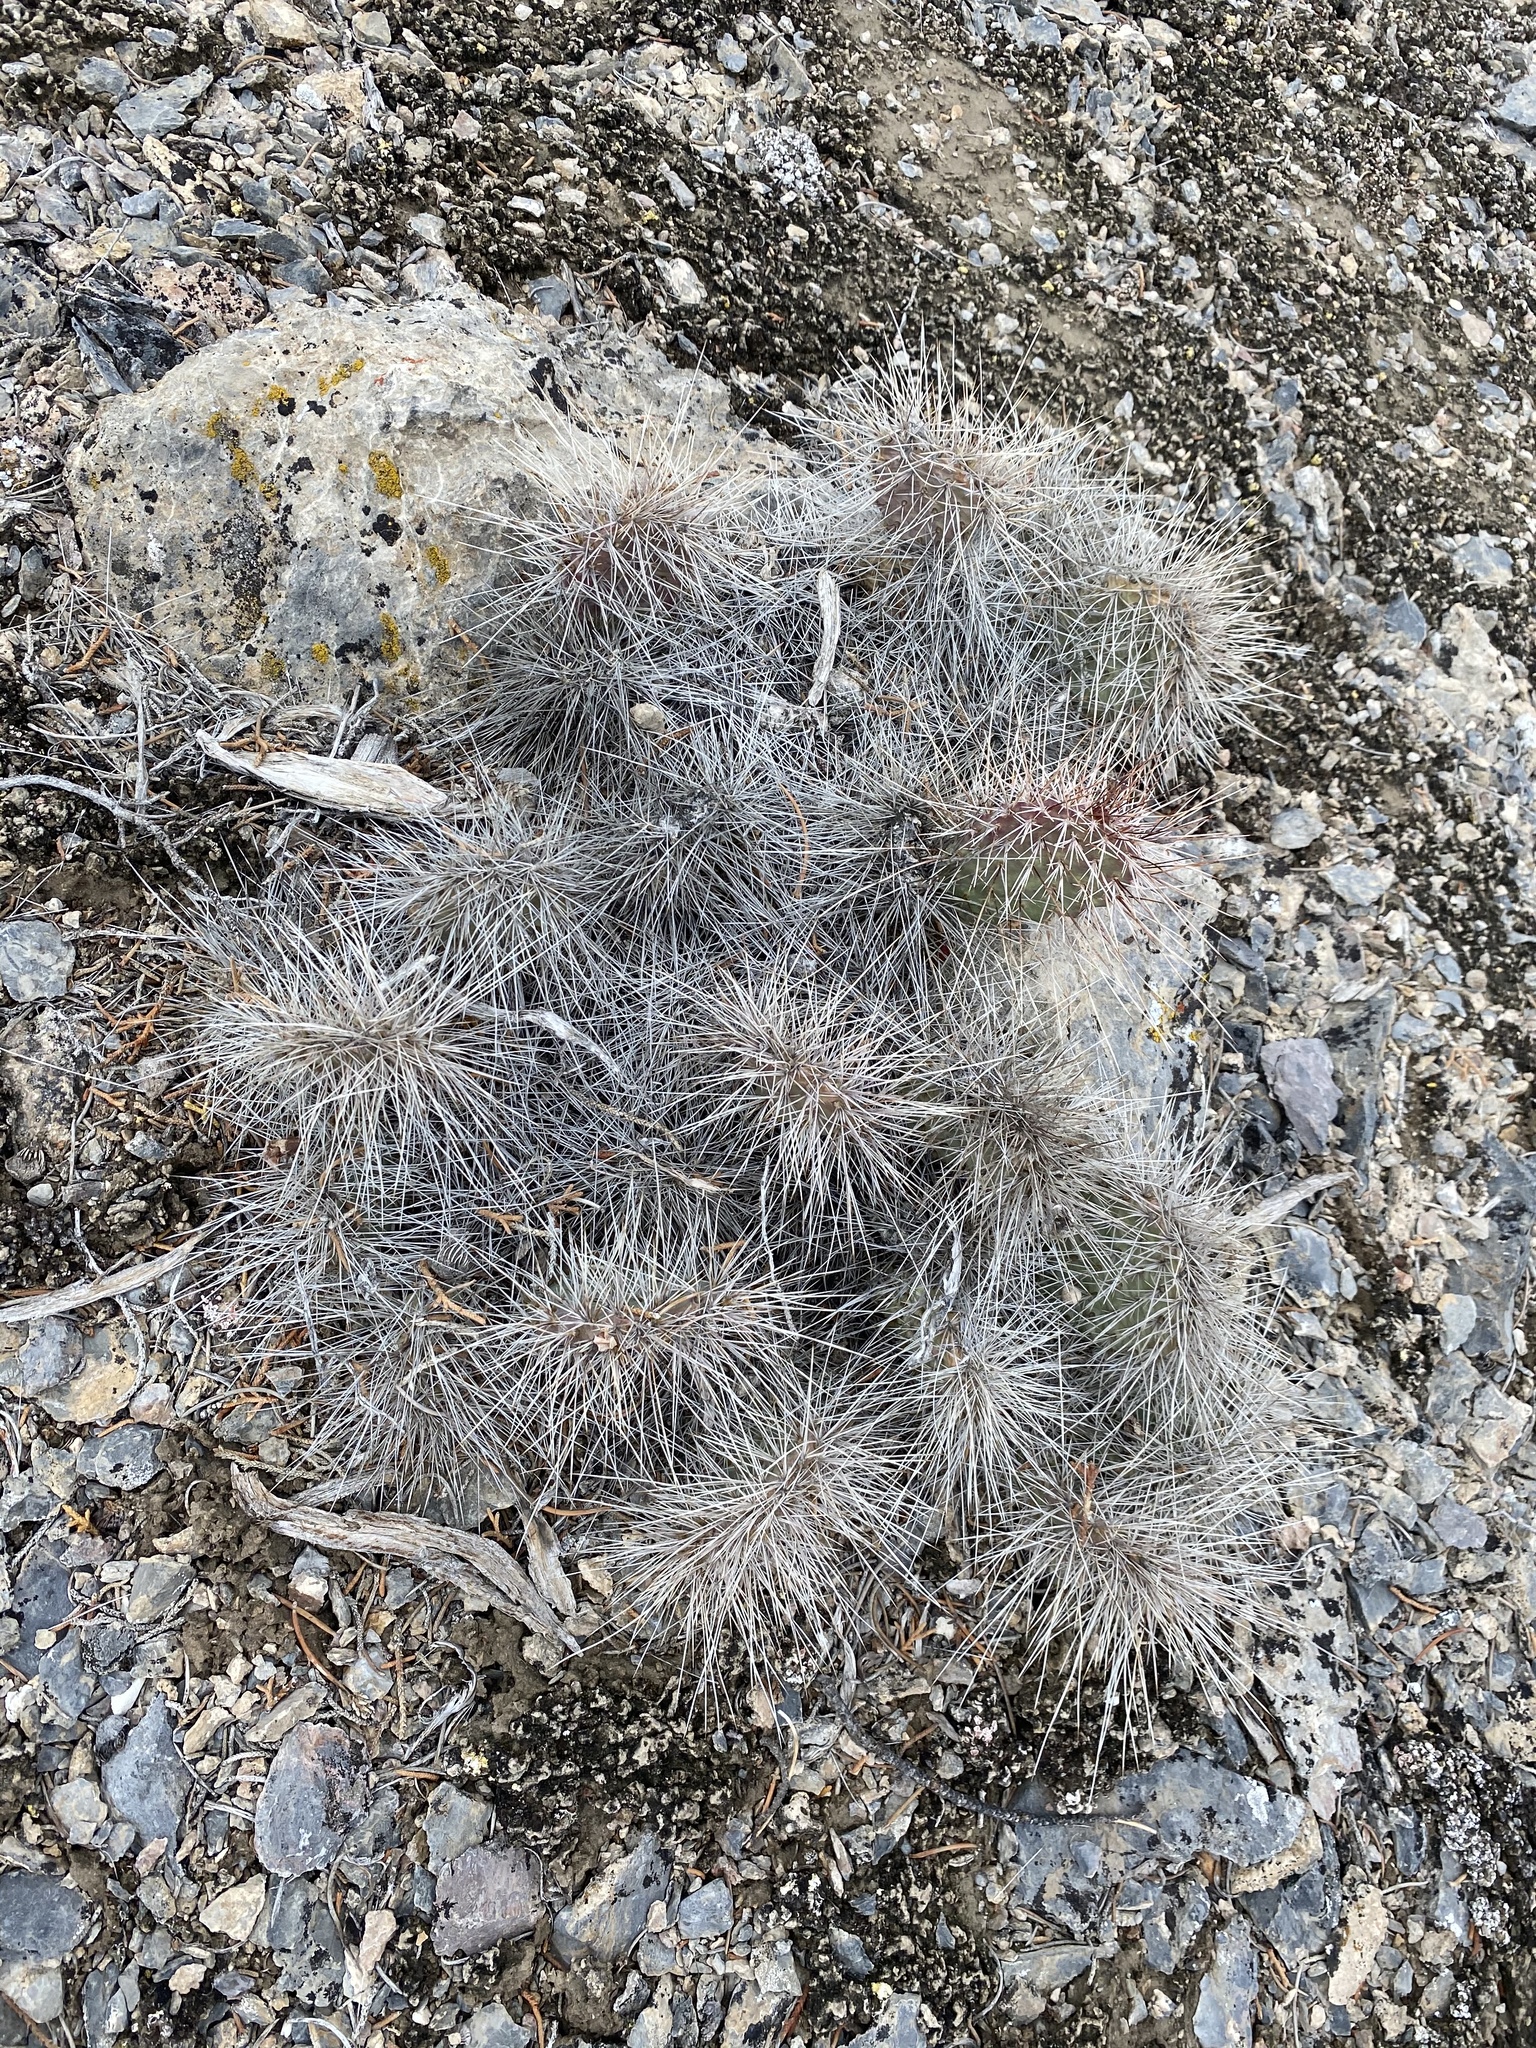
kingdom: Plantae
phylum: Tracheophyta
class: Magnoliopsida
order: Caryophyllales
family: Cactaceae
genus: Opuntia
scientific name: Opuntia polyacantha
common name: Plains prickly-pear
